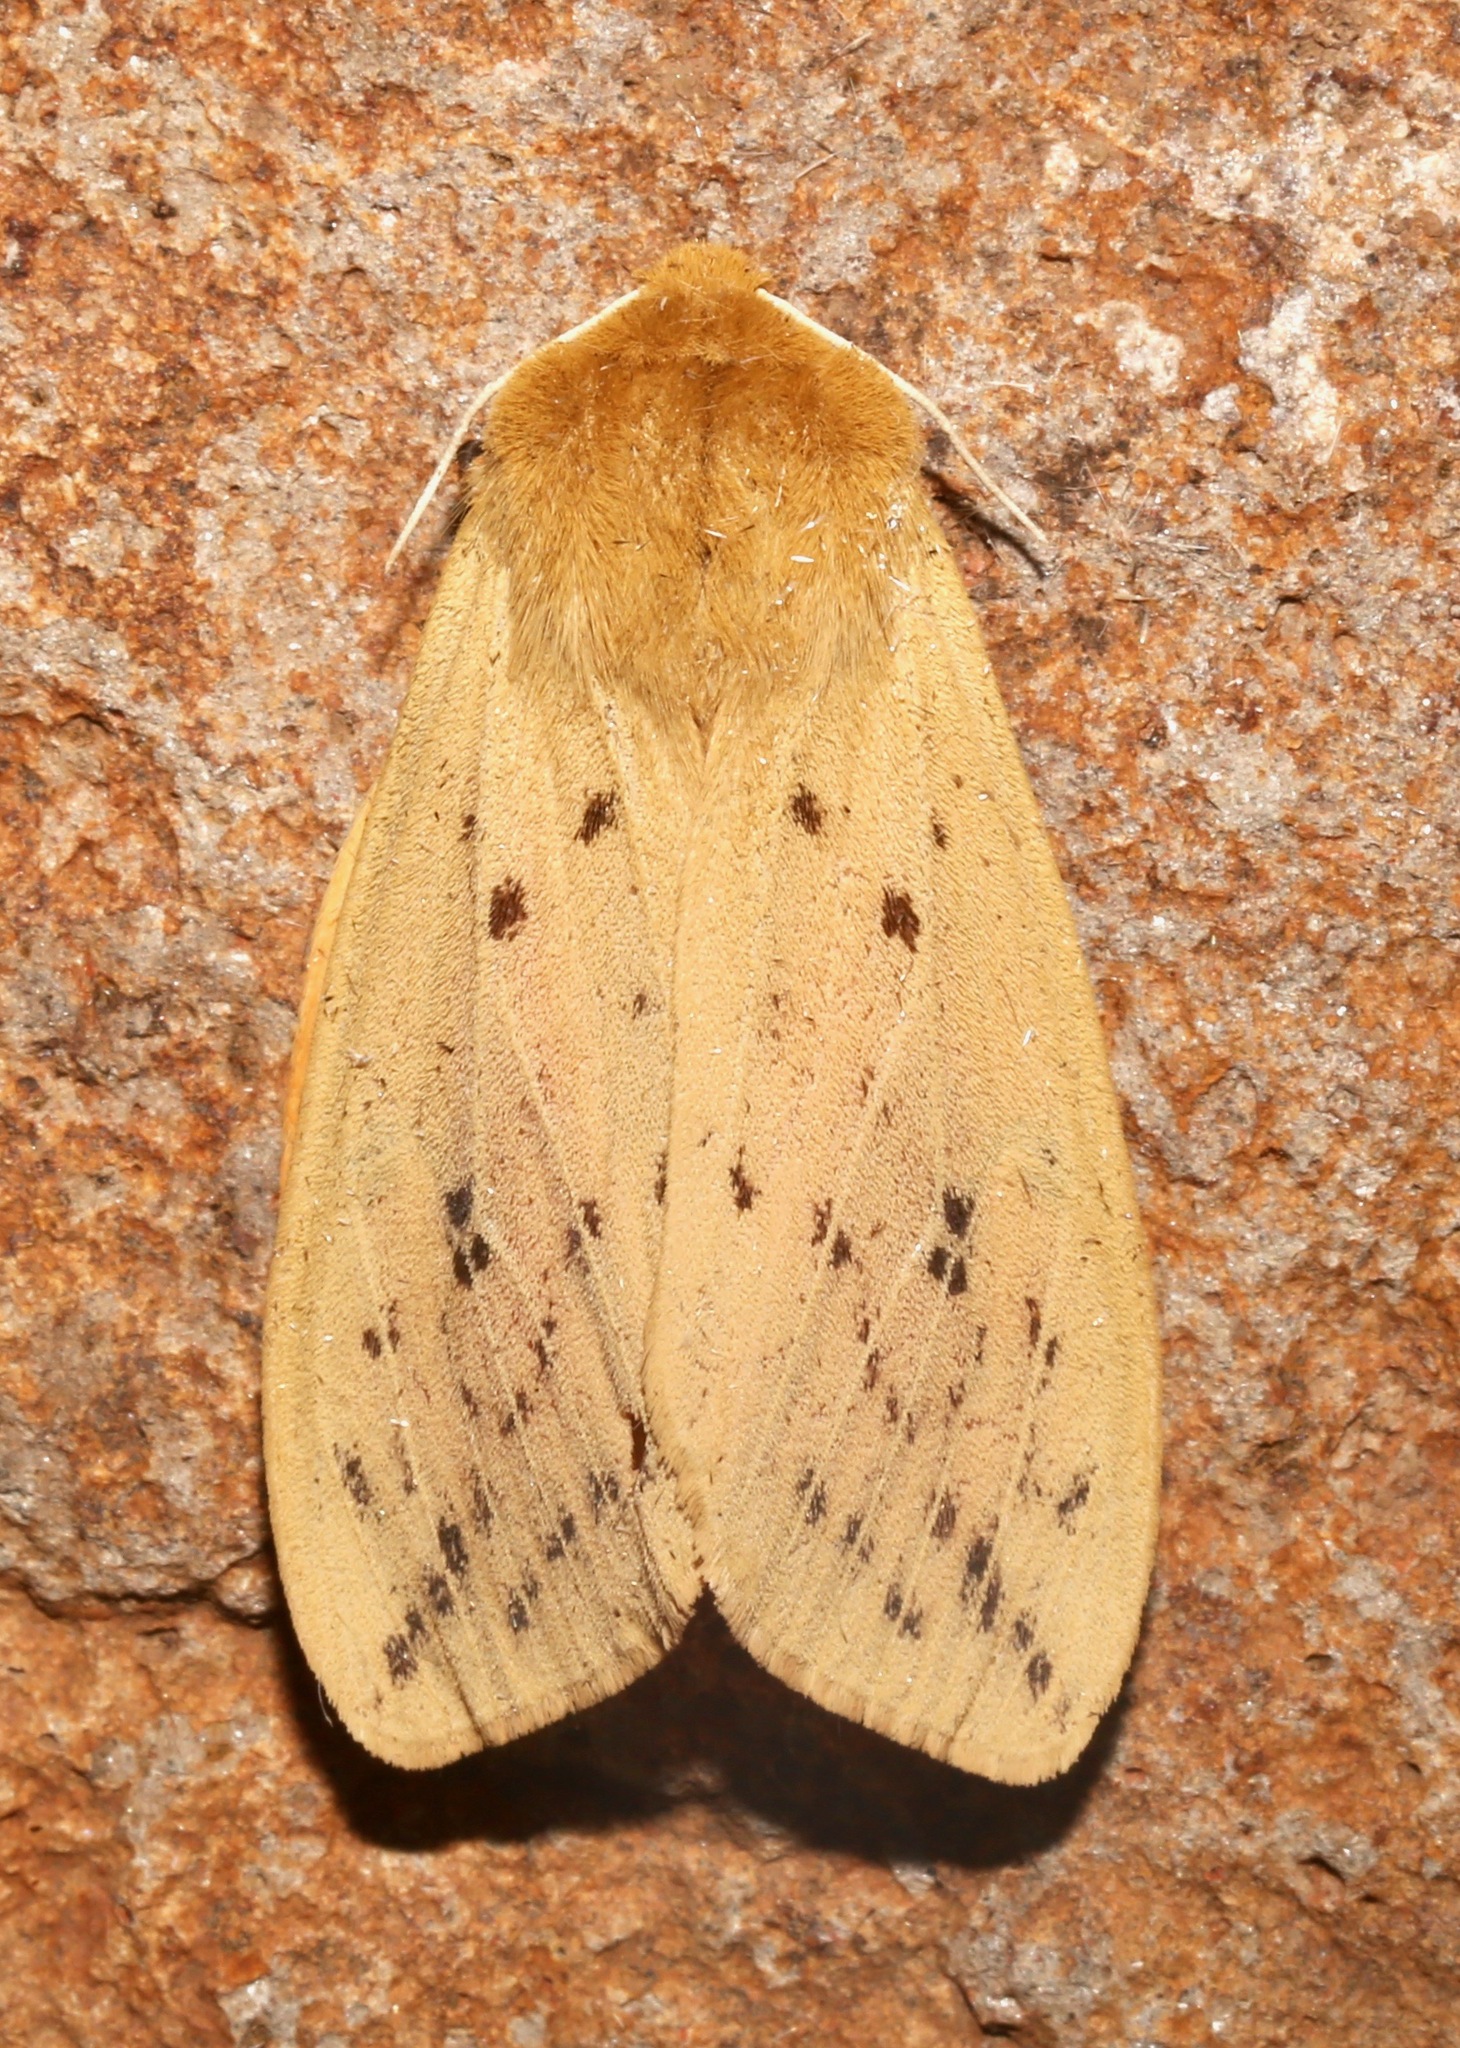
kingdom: Animalia
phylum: Arthropoda
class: Insecta
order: Lepidoptera
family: Erebidae
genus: Pyrrharctia
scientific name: Pyrrharctia isabella
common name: Isabella tiger moth
